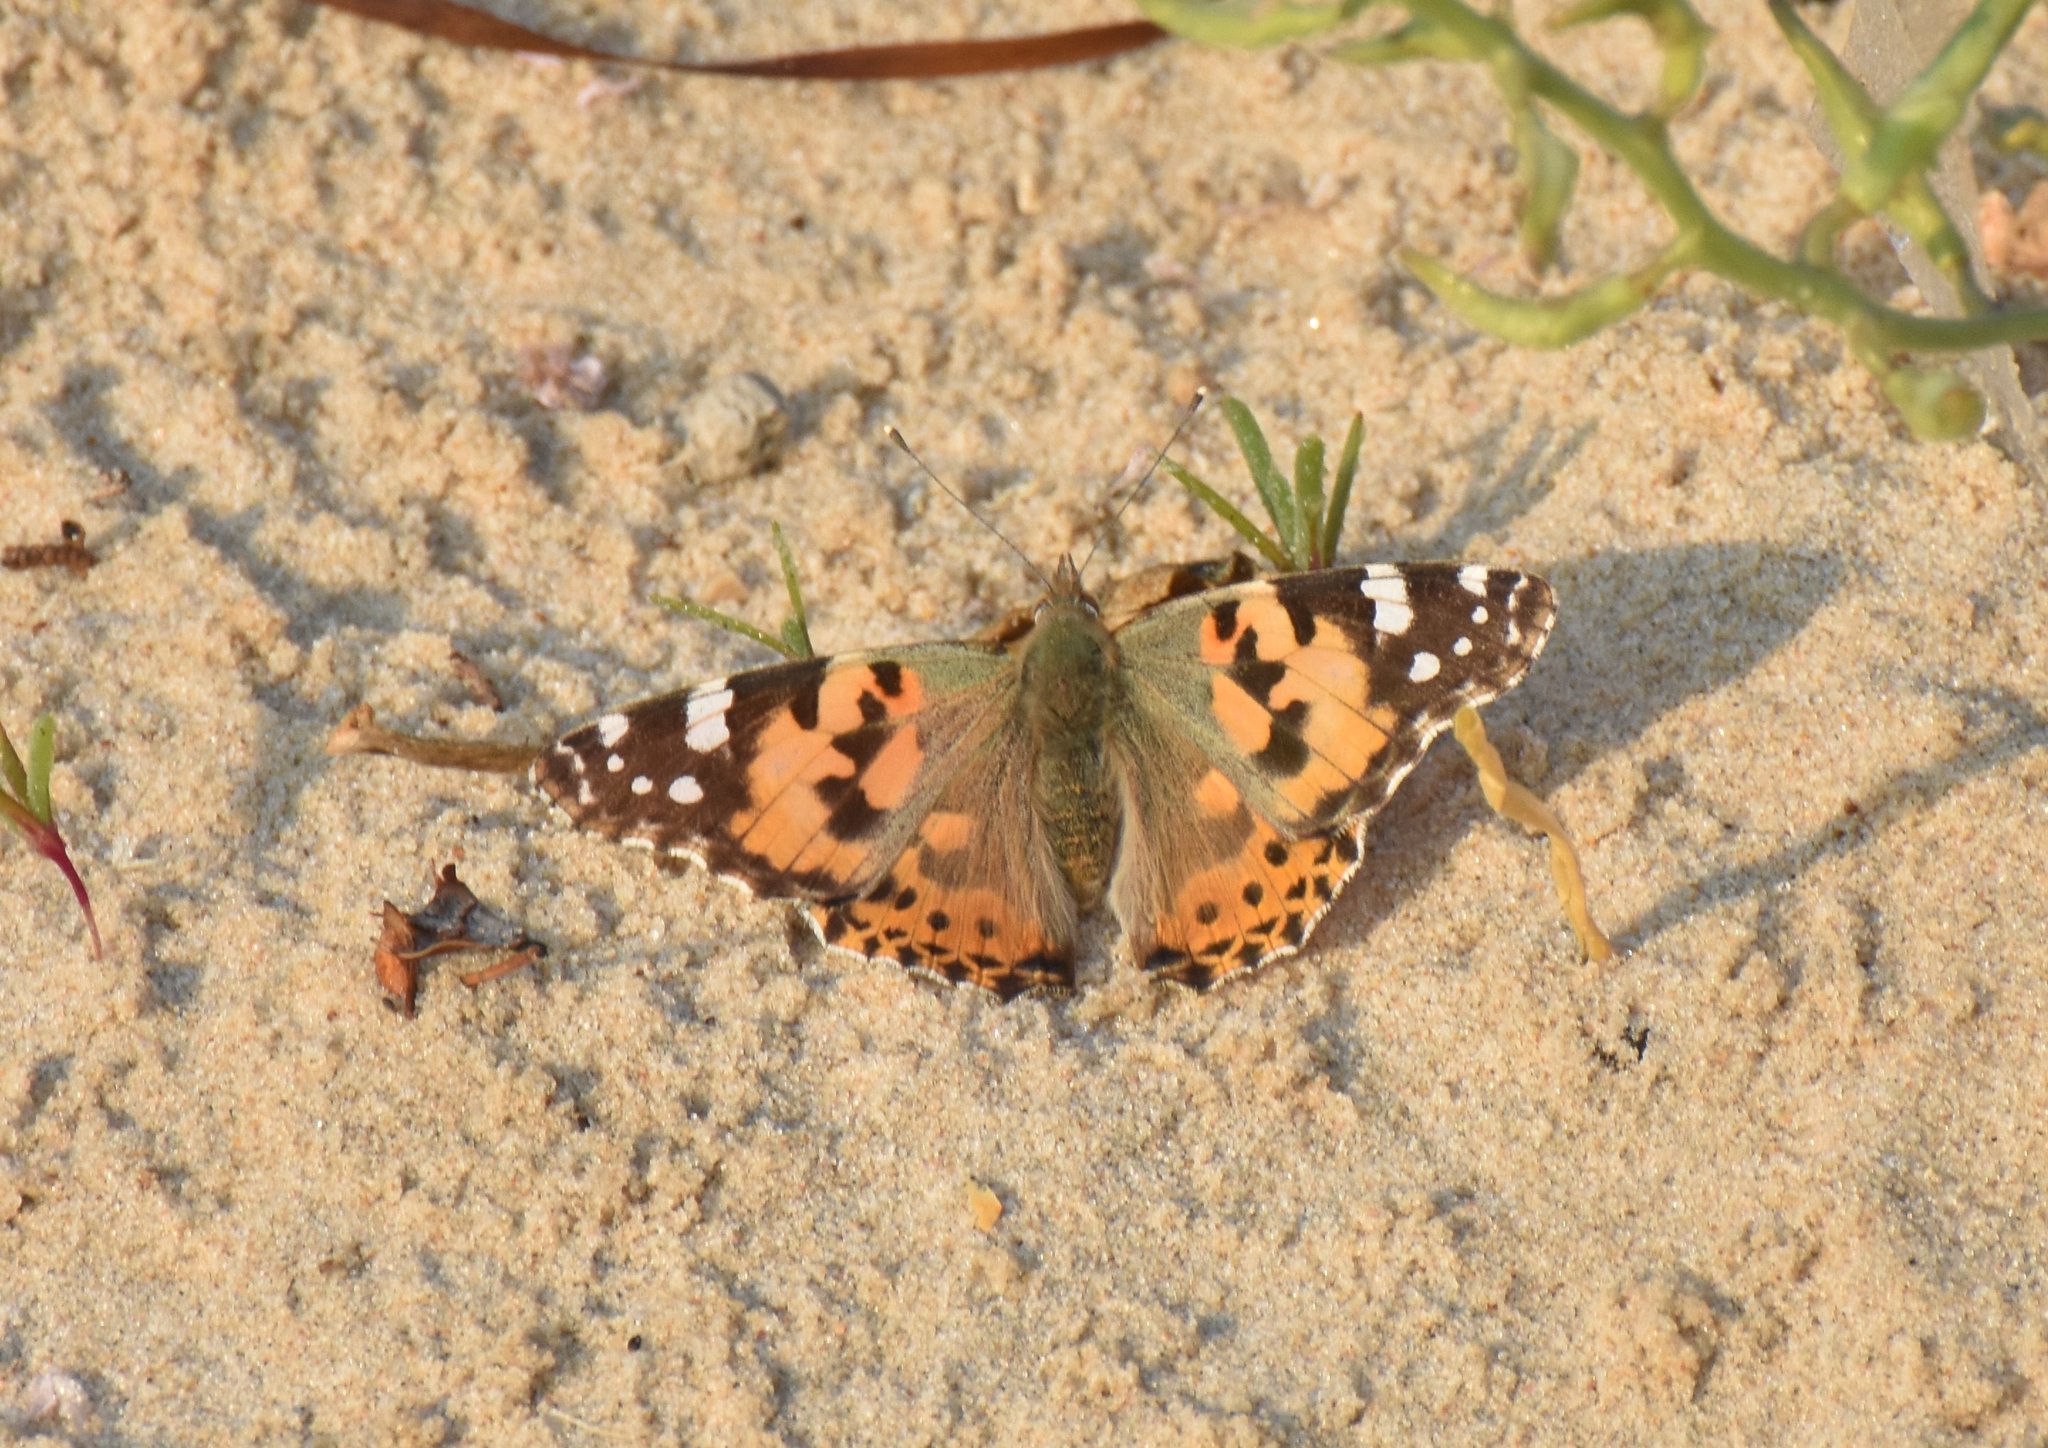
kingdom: Animalia
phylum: Arthropoda
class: Insecta
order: Lepidoptera
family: Nymphalidae
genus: Vanessa
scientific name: Vanessa cardui
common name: Painted lady
